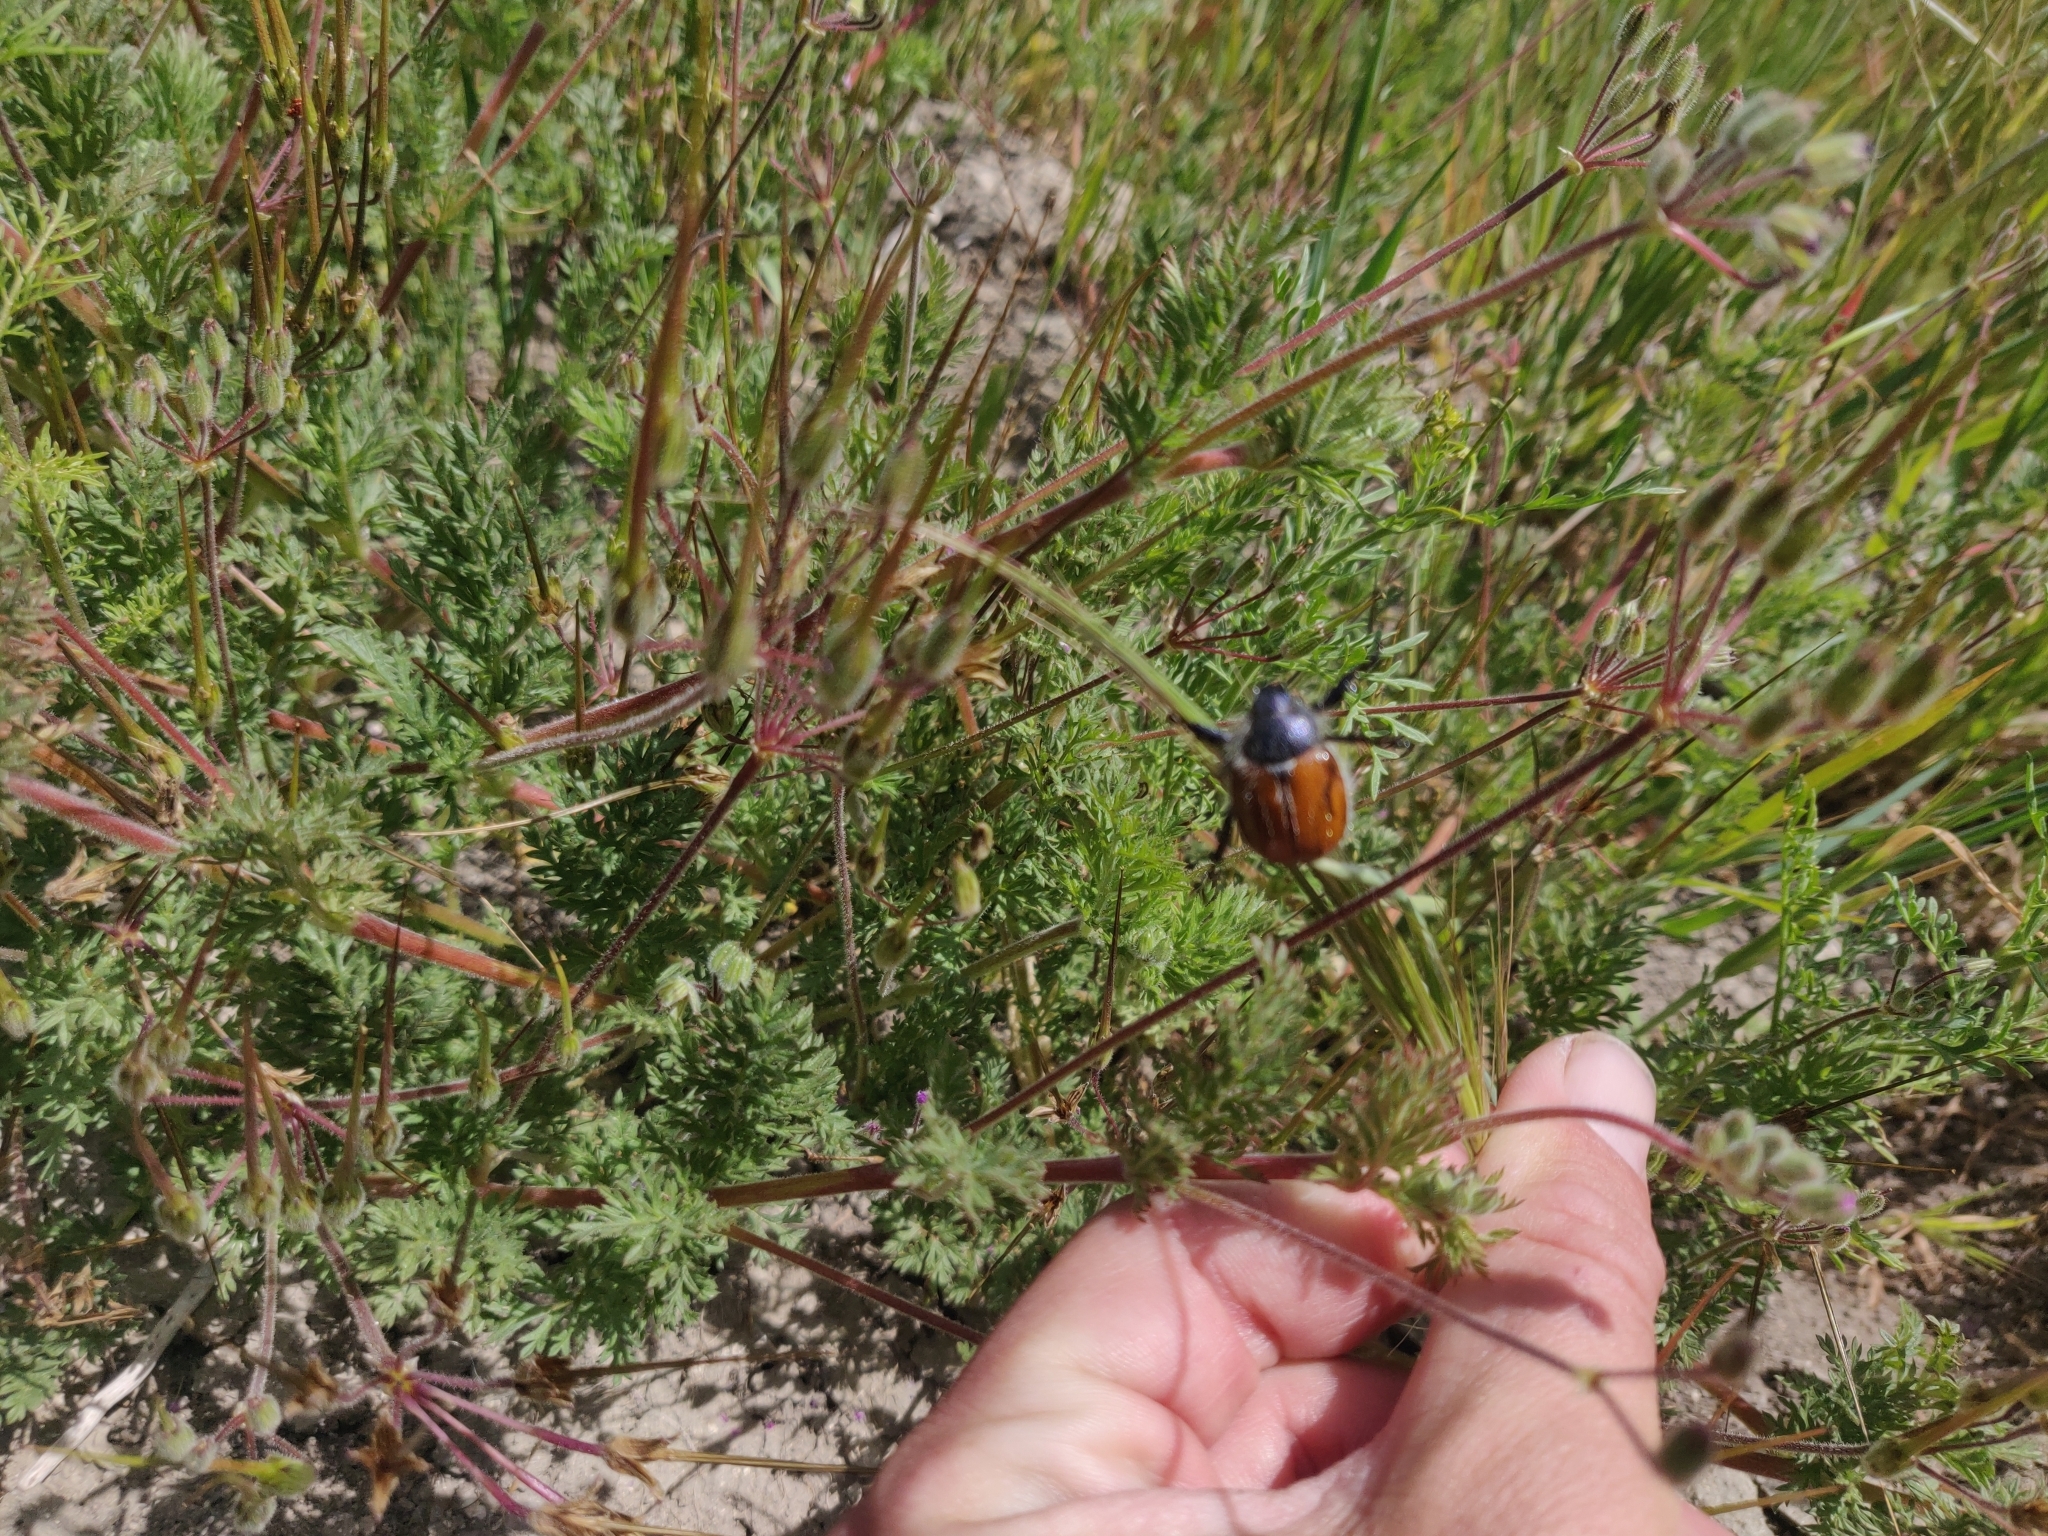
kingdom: Animalia
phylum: Arthropoda
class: Insecta
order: Coleoptera
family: Scarabaeidae
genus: Paracotalpa
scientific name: Paracotalpa ursina
